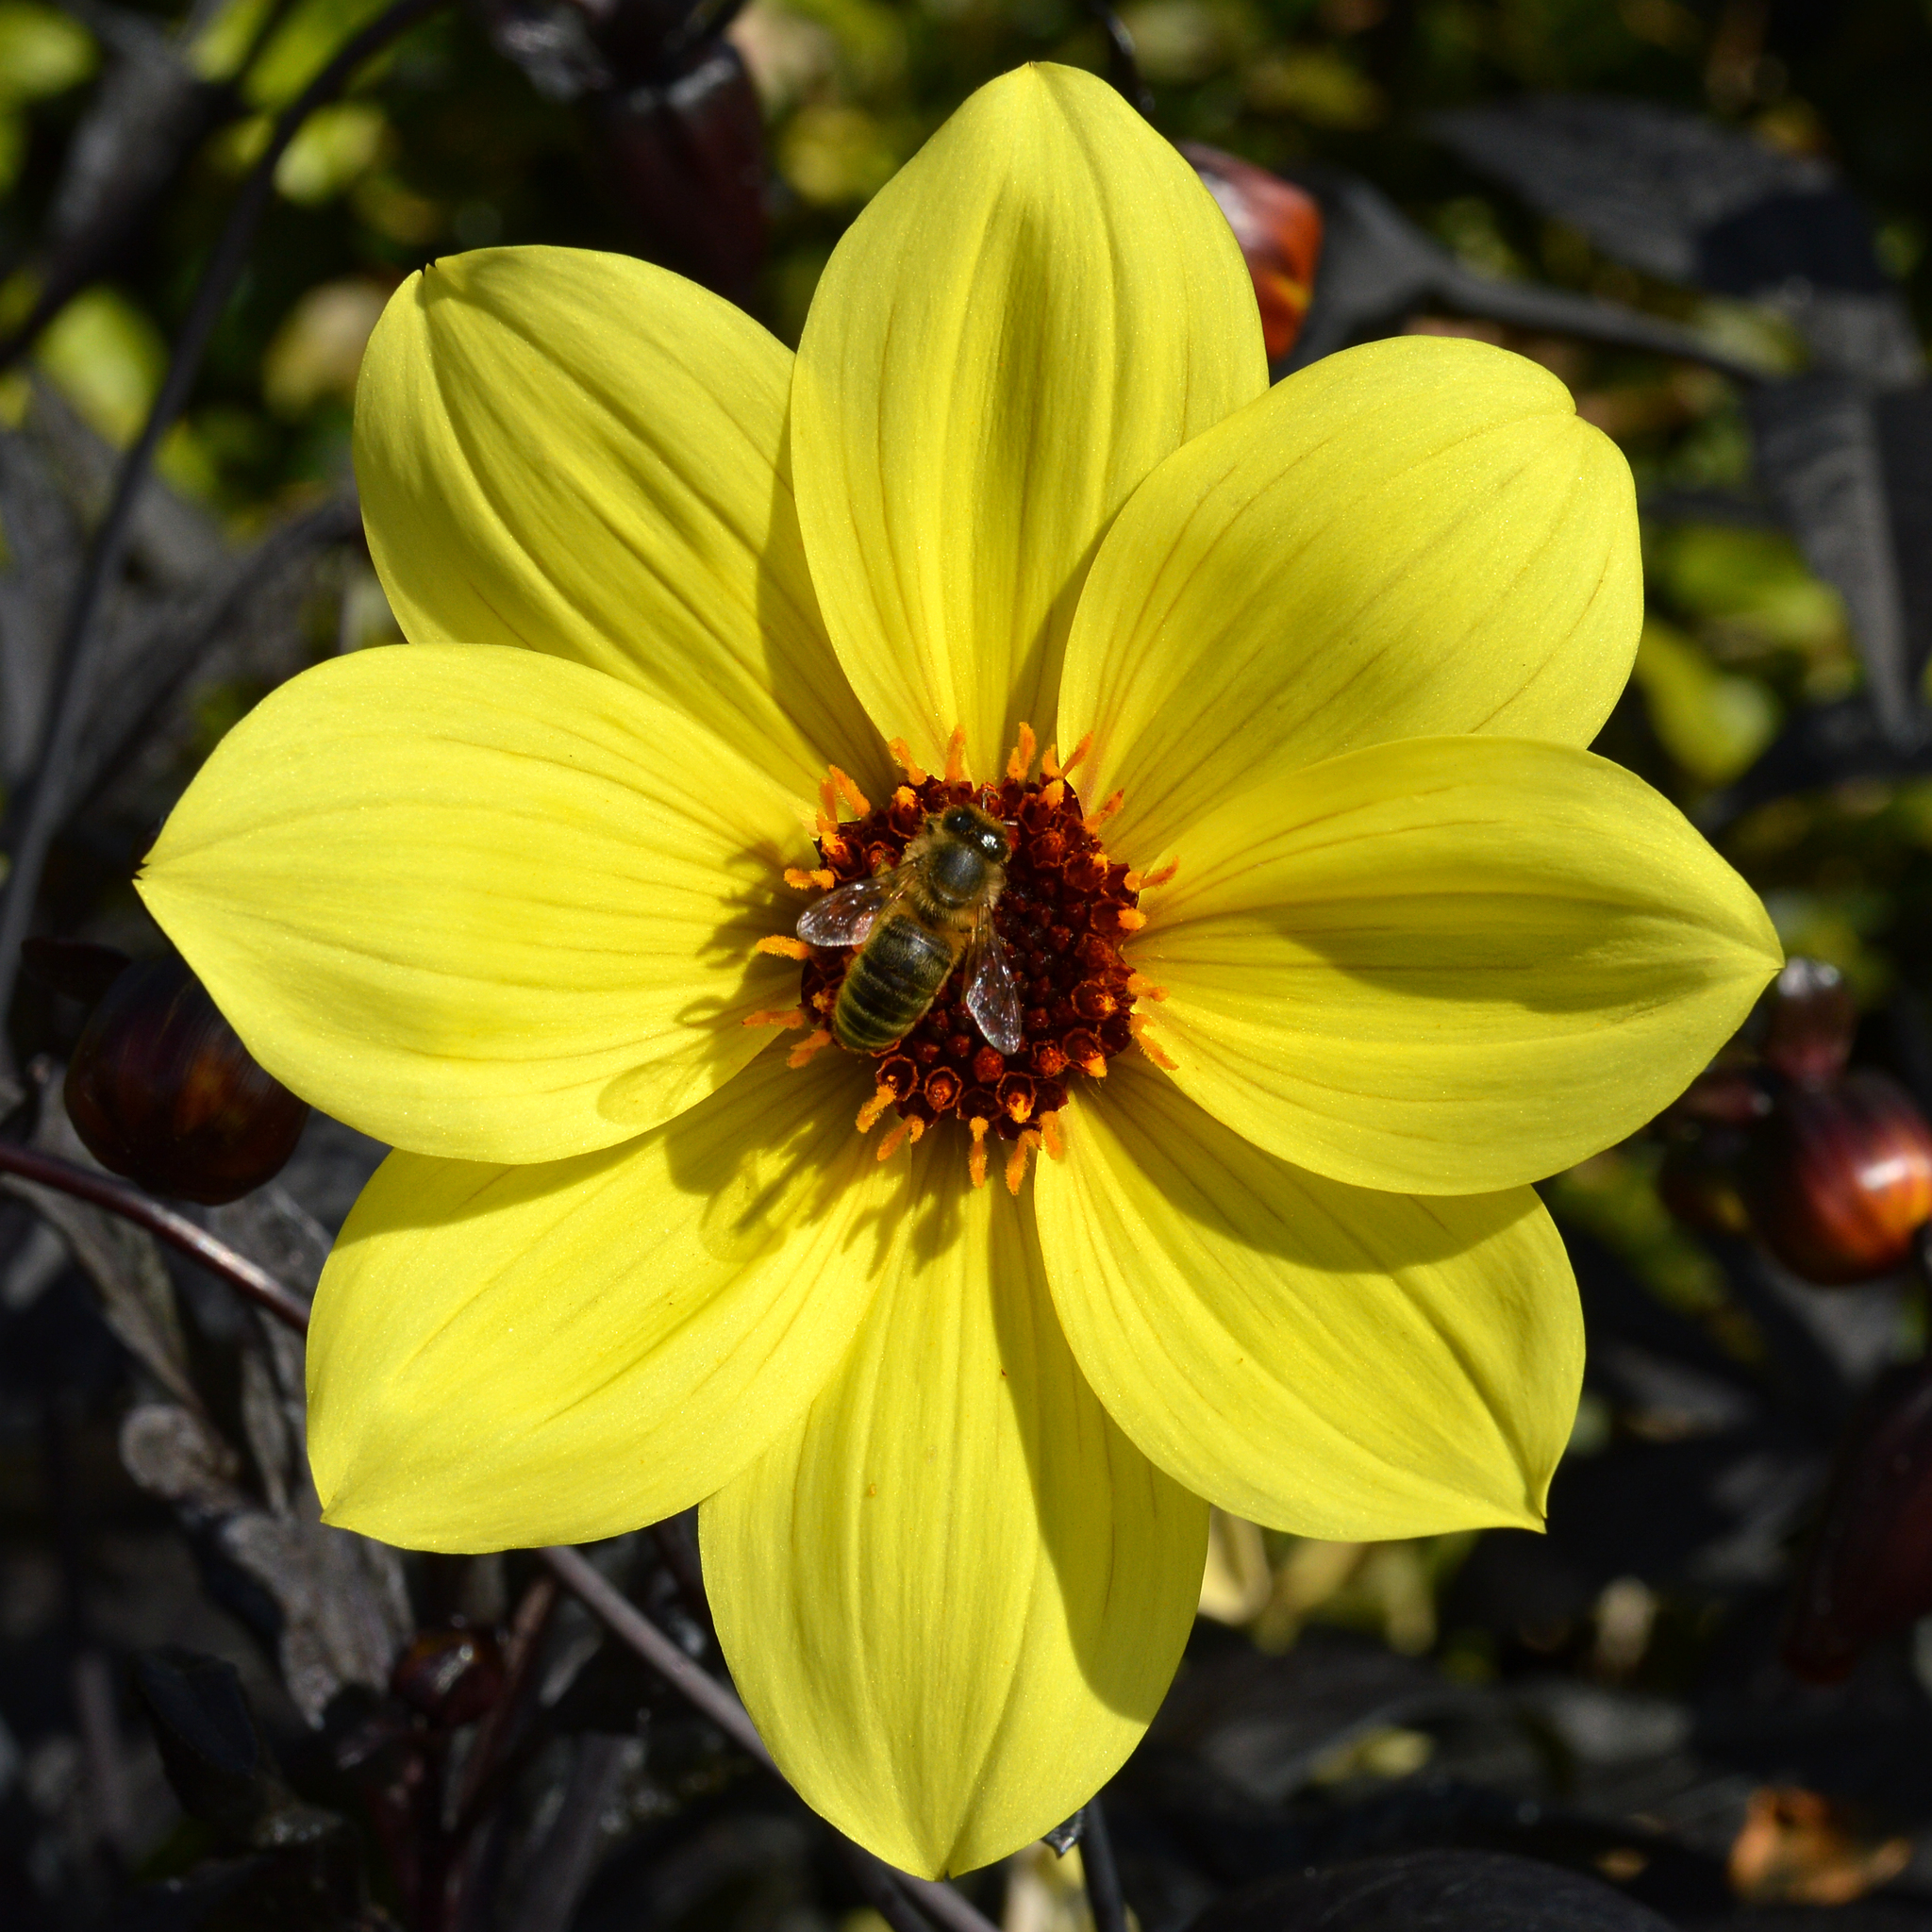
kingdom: Animalia
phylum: Arthropoda
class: Insecta
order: Hymenoptera
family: Apidae
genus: Apis
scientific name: Apis mellifera
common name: Honey bee
